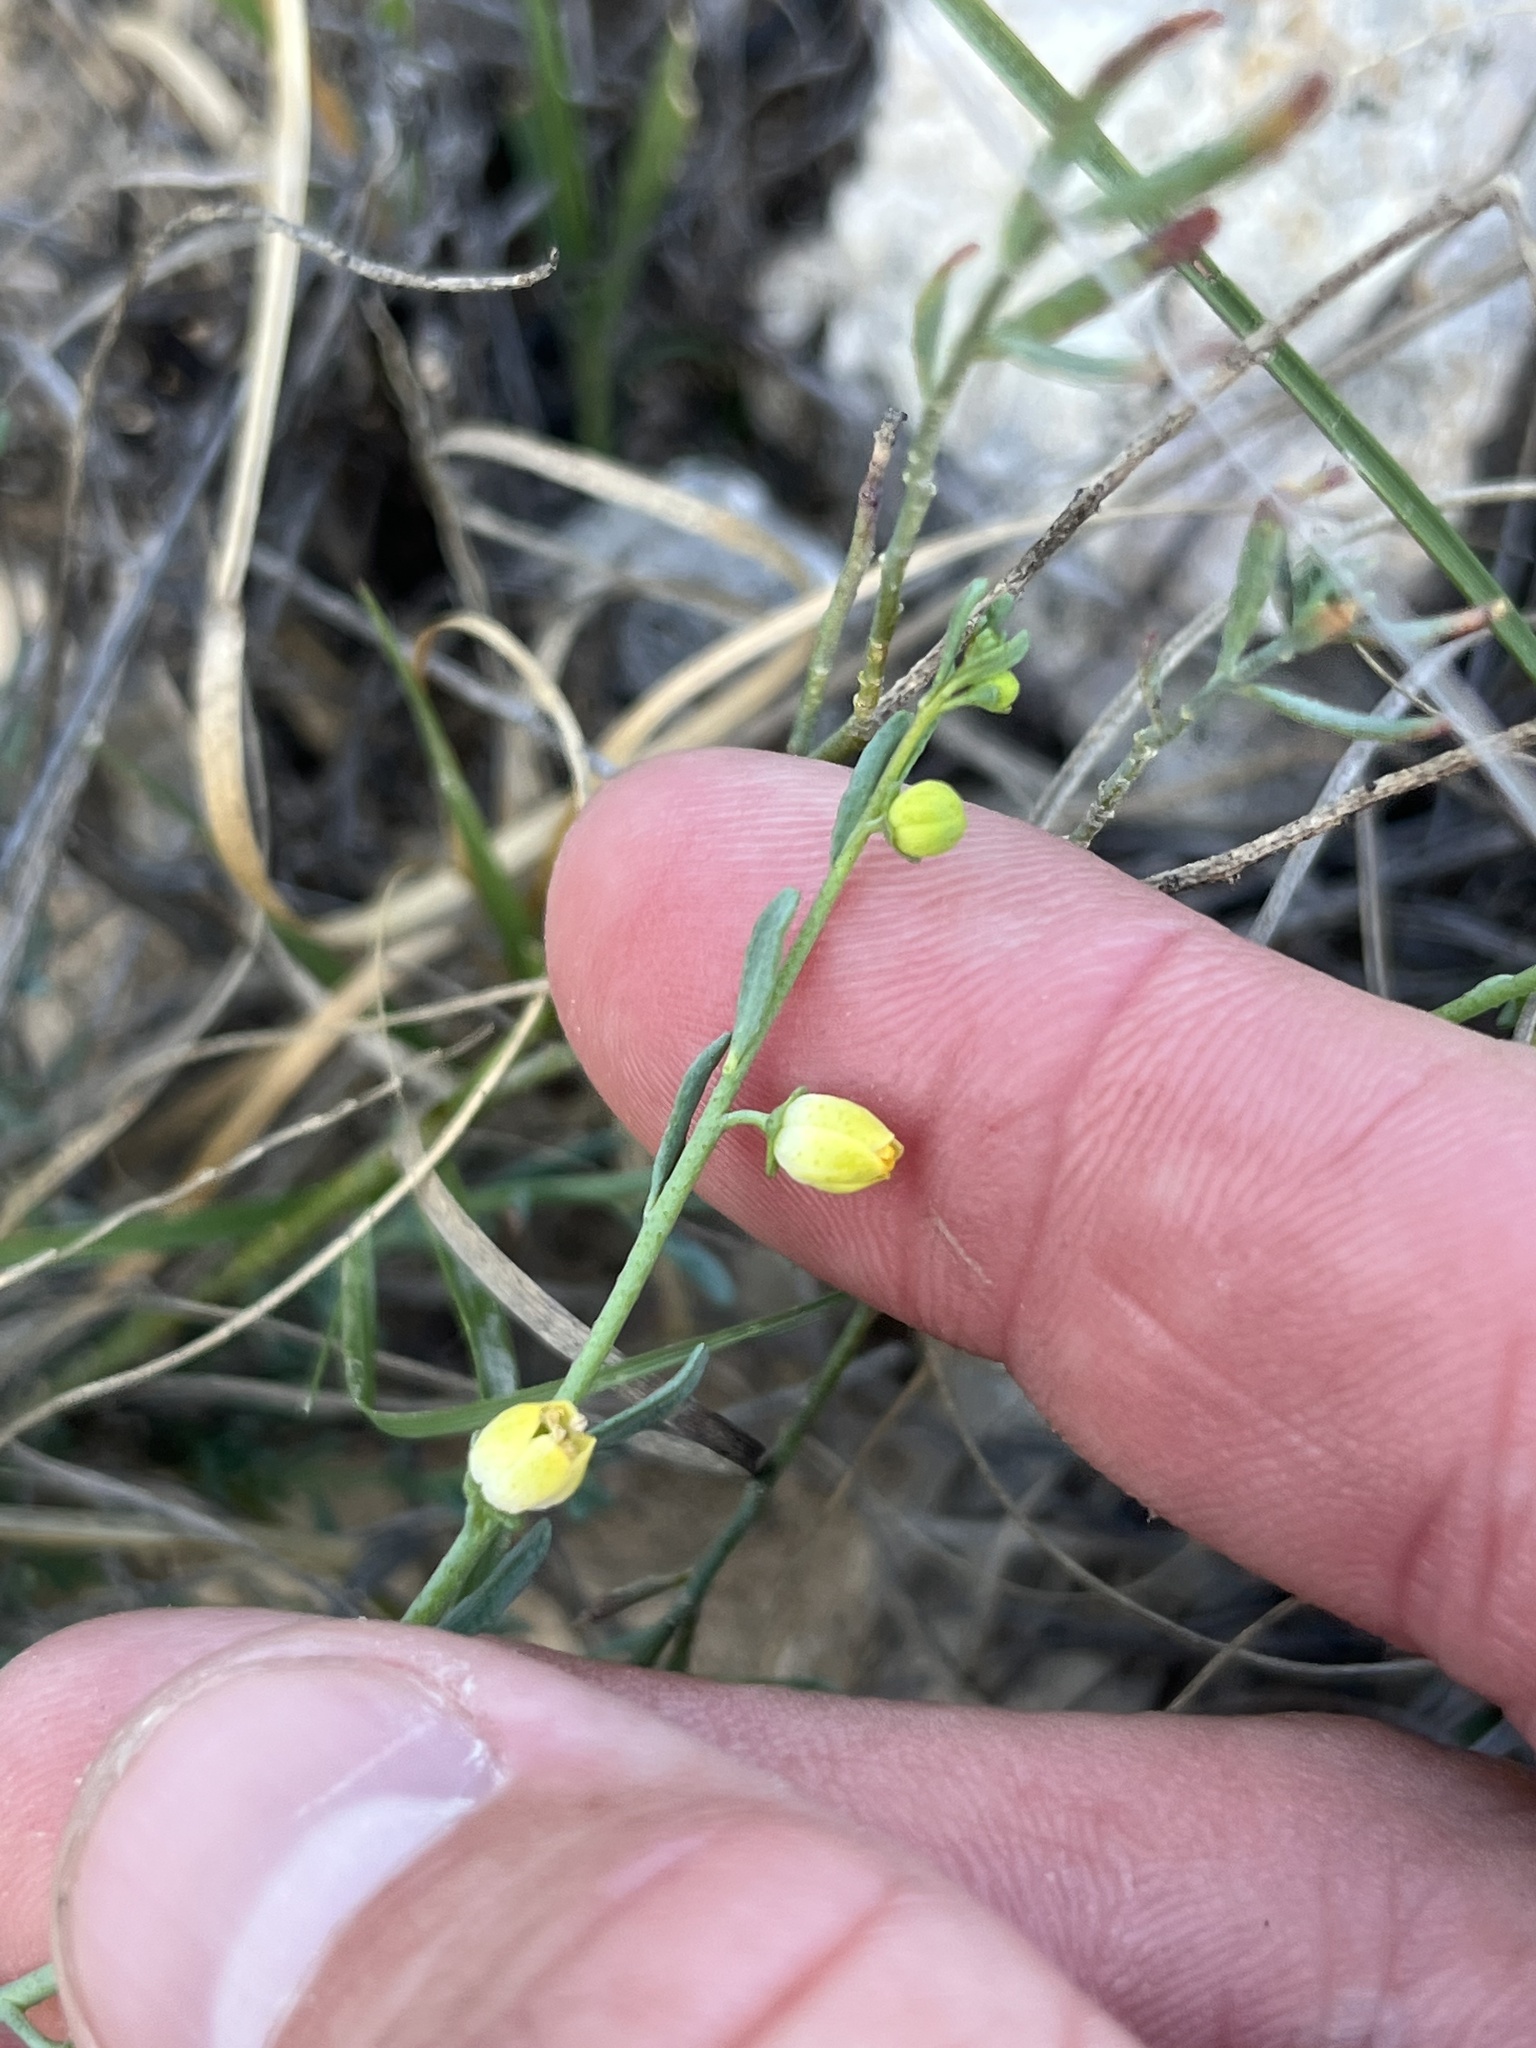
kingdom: Plantae
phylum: Tracheophyta
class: Magnoliopsida
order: Sapindales
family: Rutaceae
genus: Thamnosma
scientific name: Thamnosma texana
